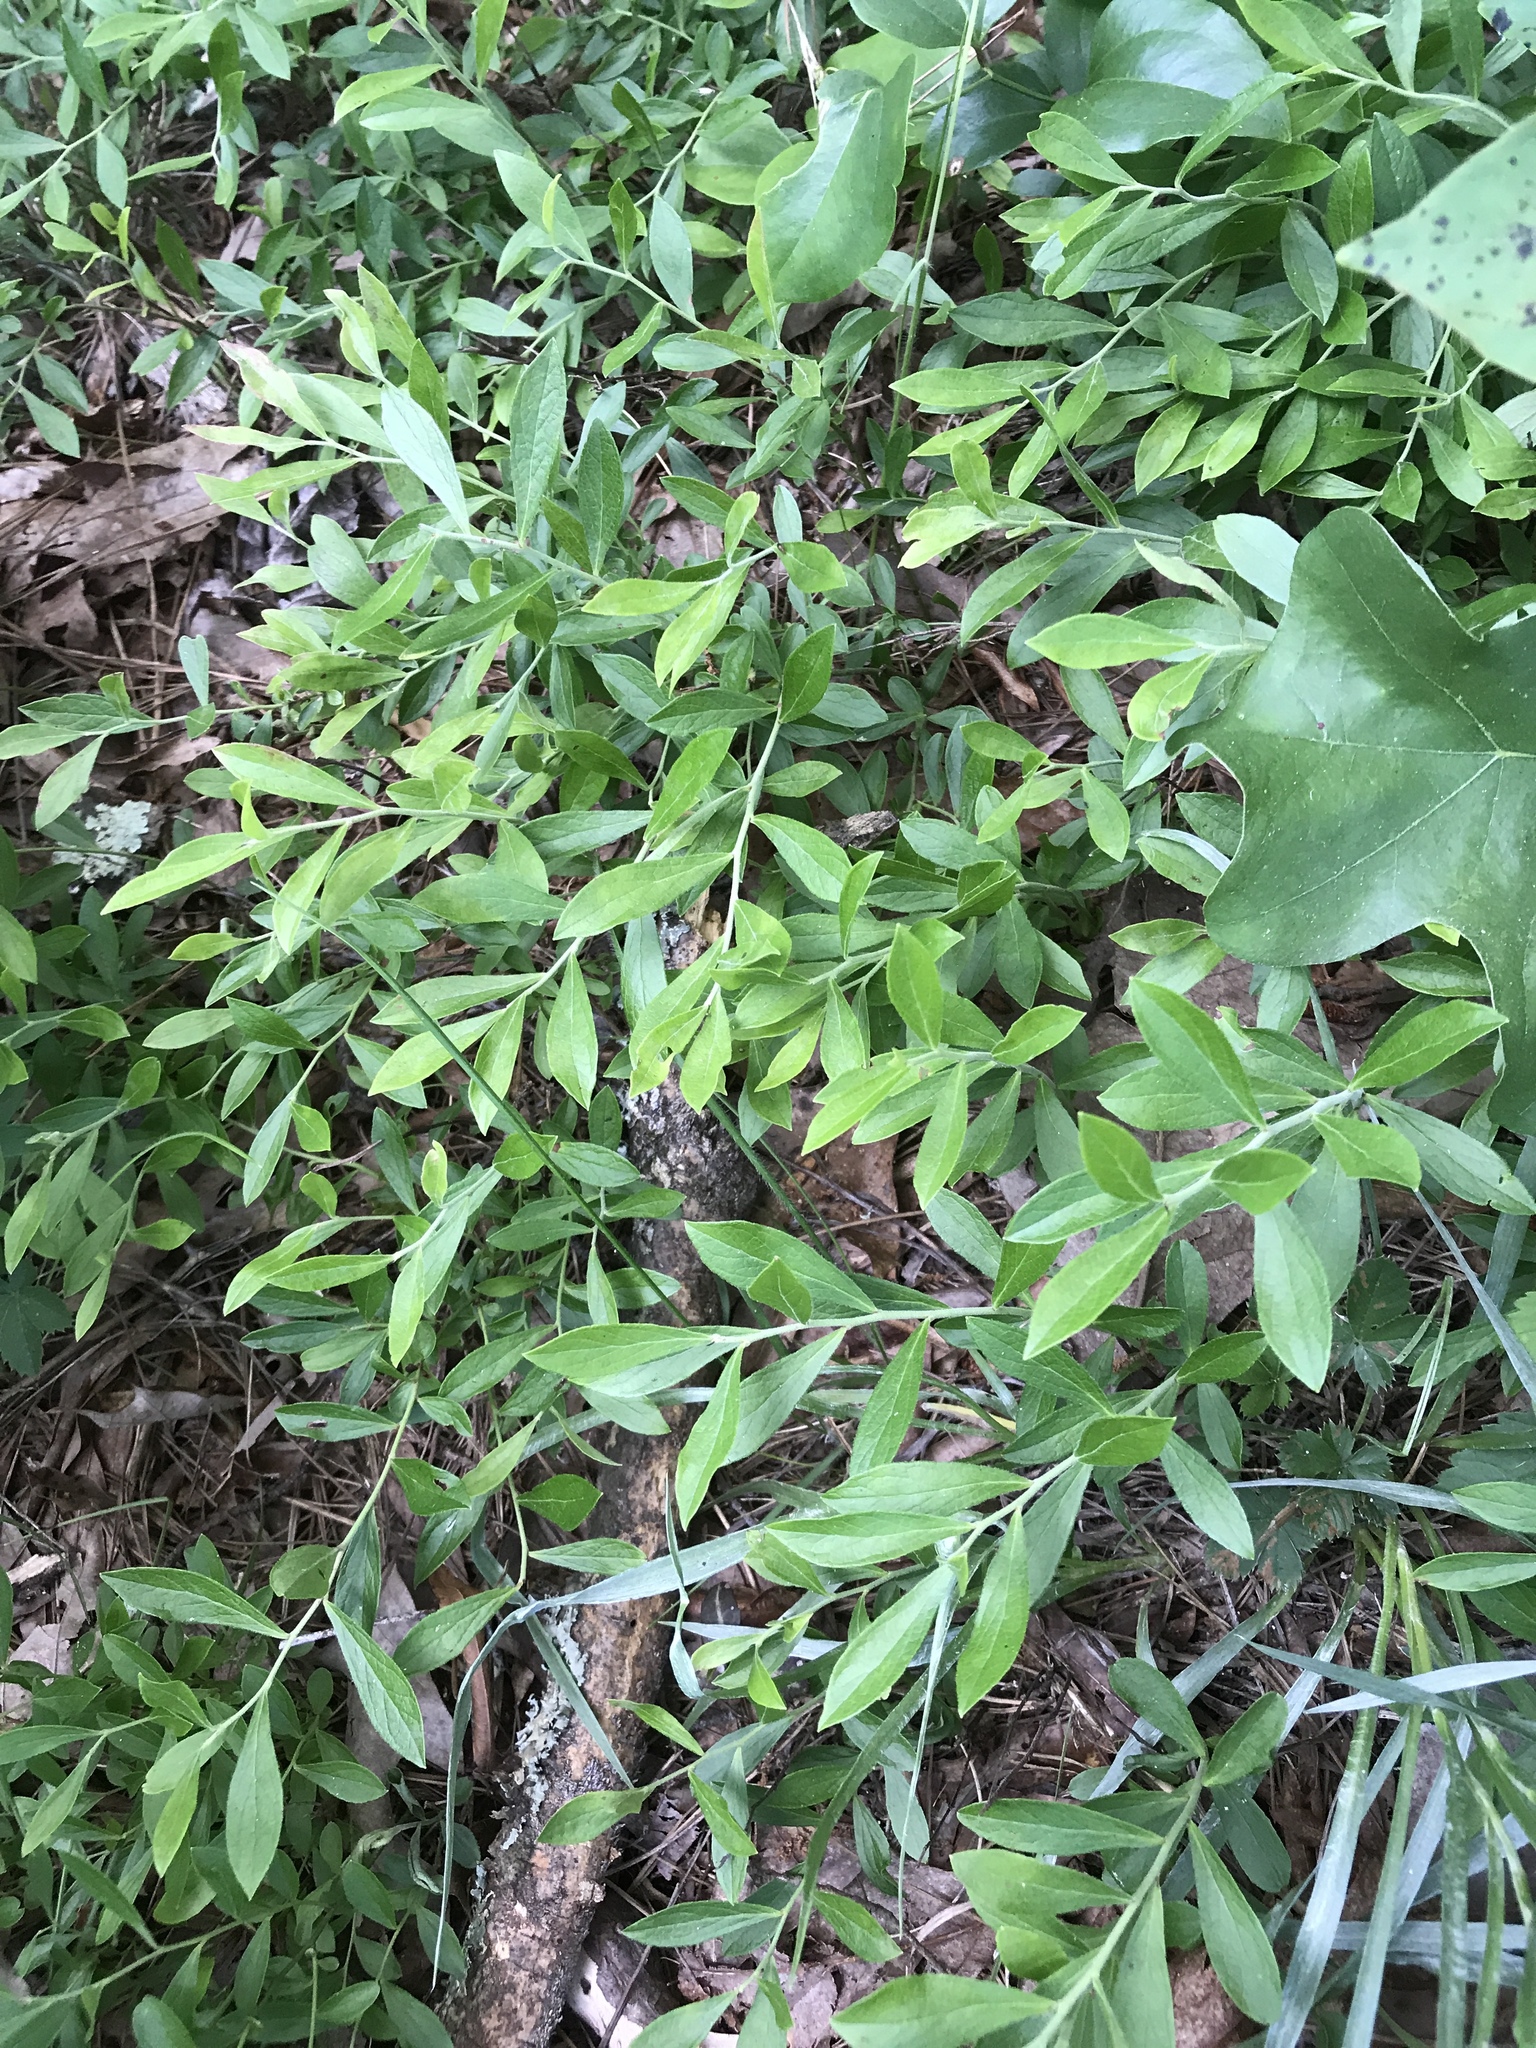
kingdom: Plantae
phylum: Tracheophyta
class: Magnoliopsida
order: Ericales
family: Ericaceae
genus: Vaccinium
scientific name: Vaccinium tenellum
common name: Southern blueberry
